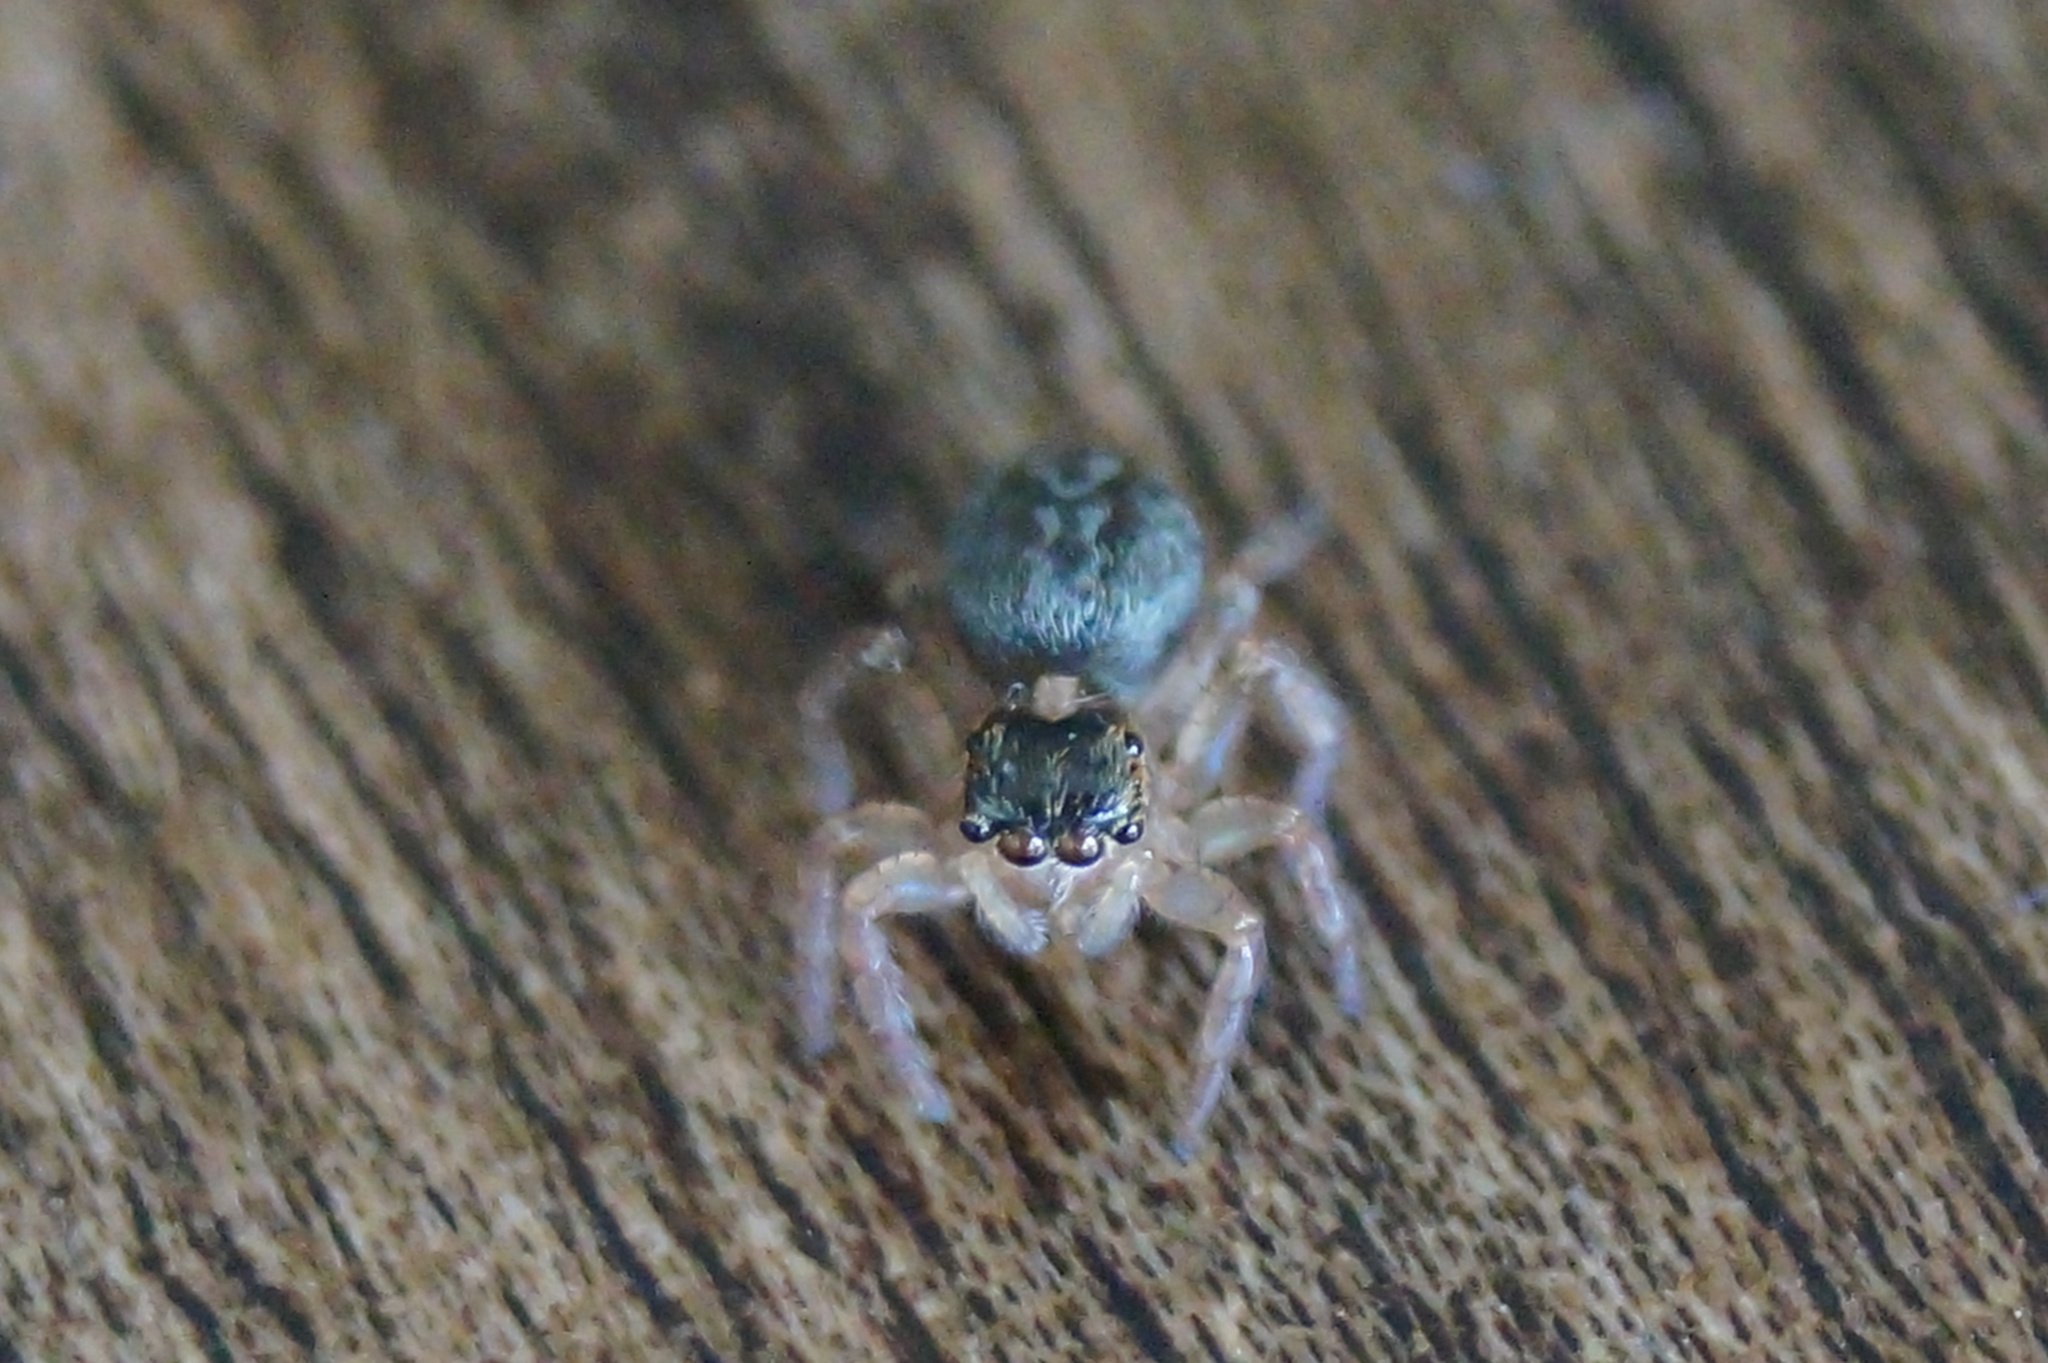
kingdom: Animalia
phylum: Arthropoda
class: Arachnida
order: Araneae
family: Salticidae
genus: Saitis
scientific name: Saitis barbipes
